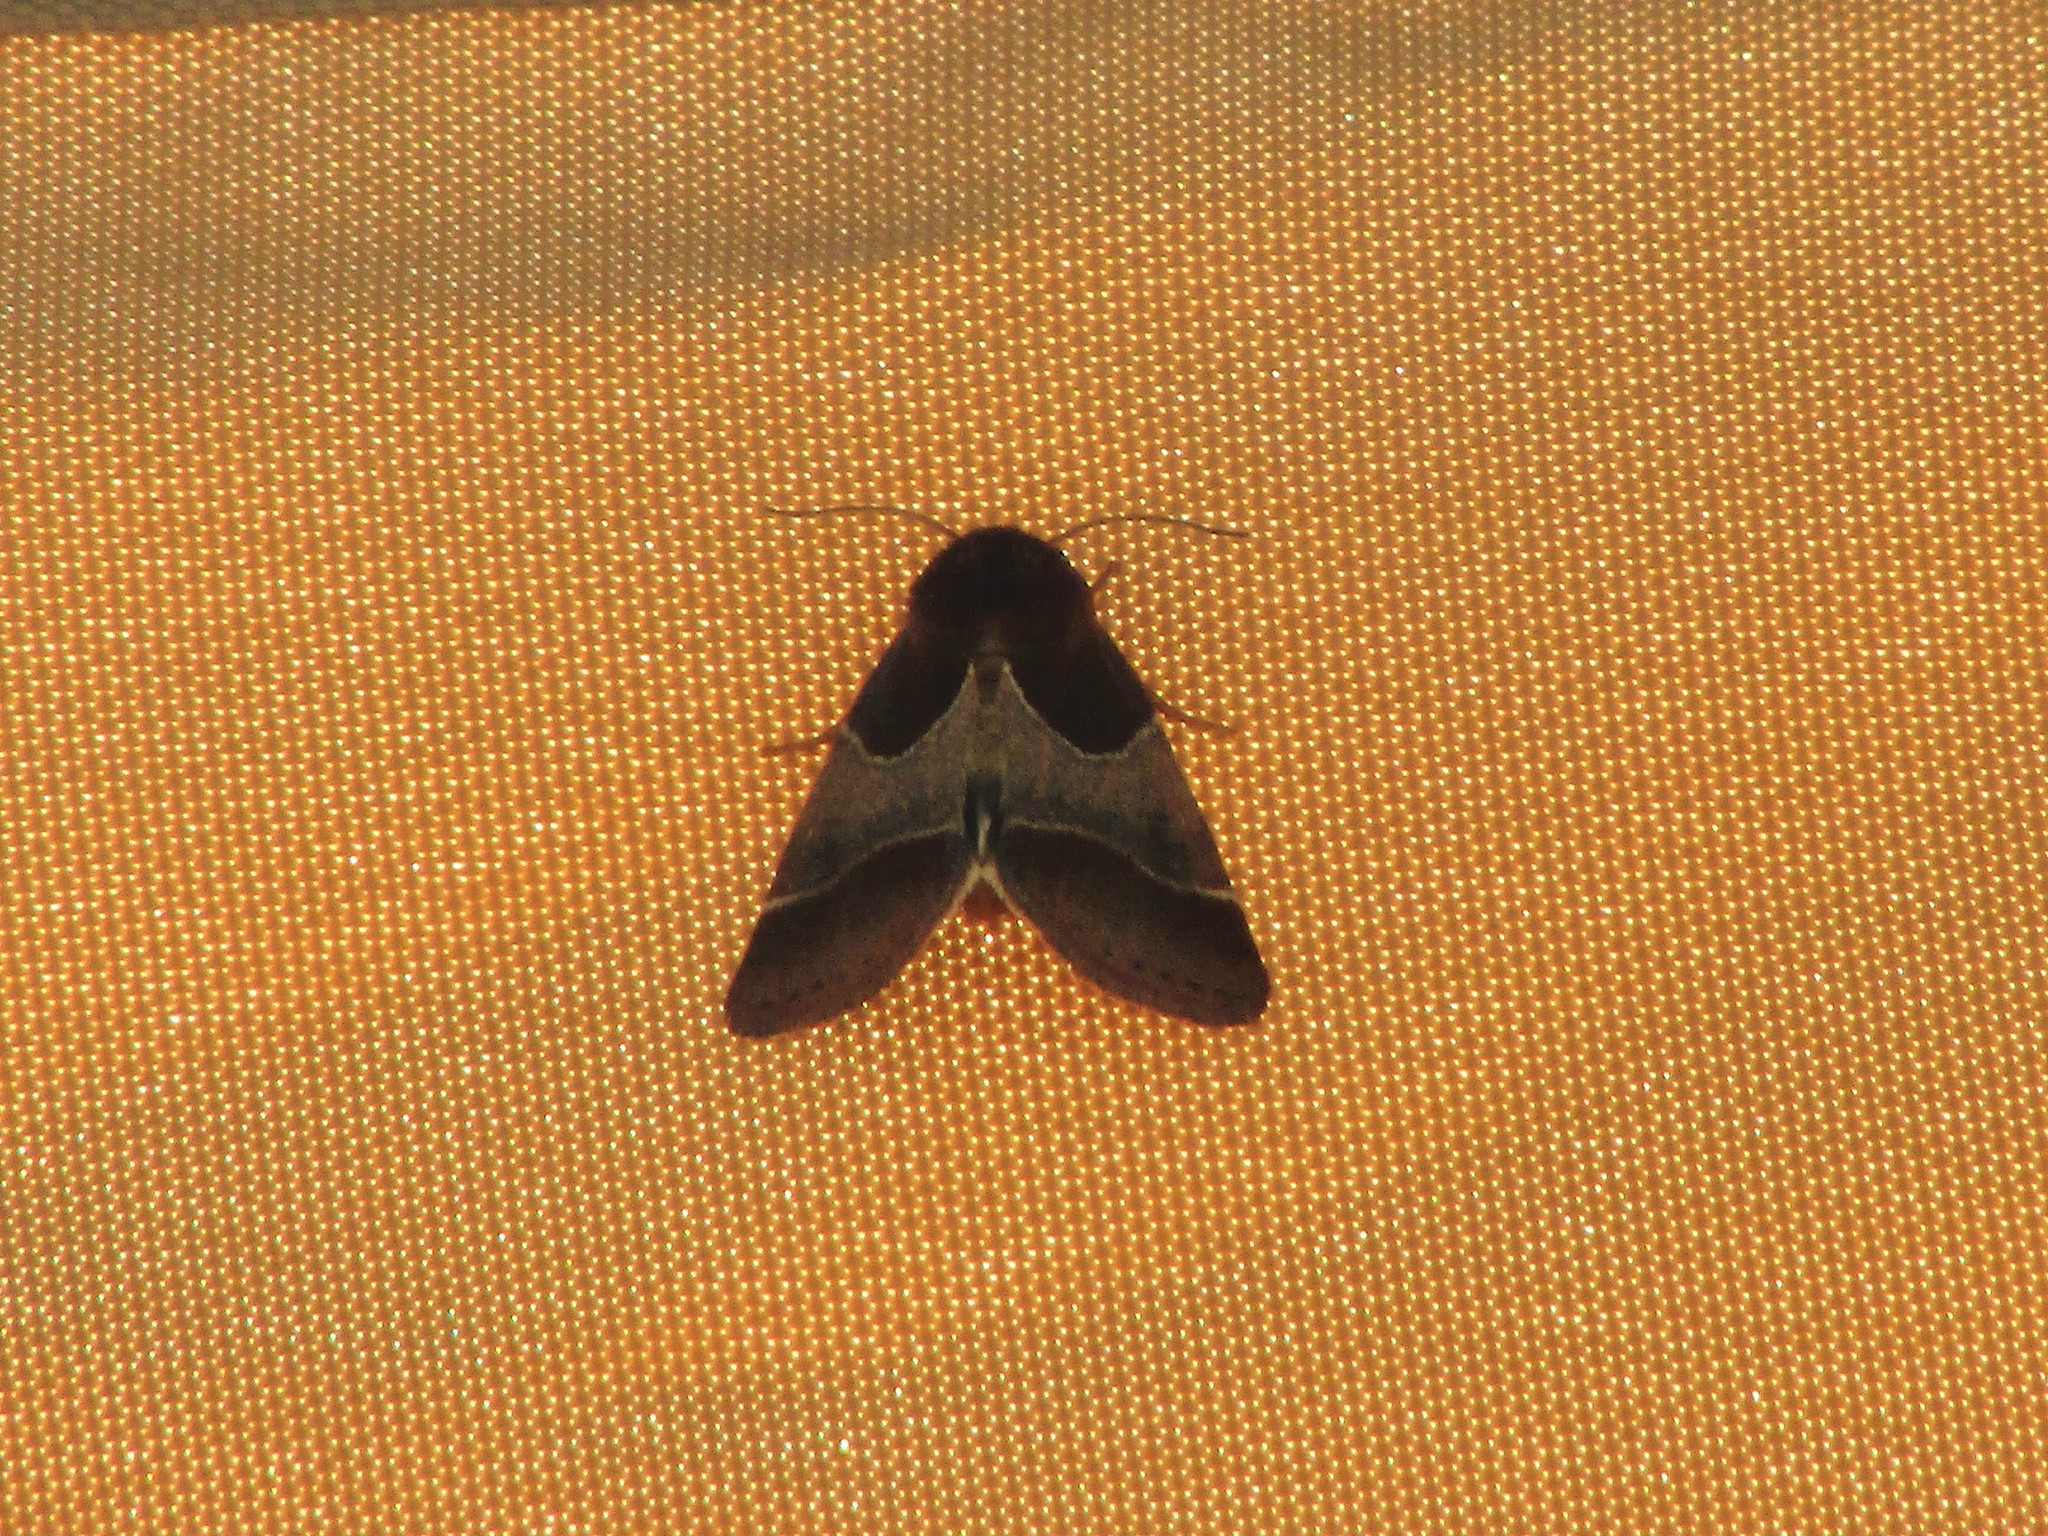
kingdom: Animalia
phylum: Arthropoda
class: Insecta
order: Lepidoptera
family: Noctuidae
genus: Schinia
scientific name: Schinia arcigera
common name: Arcigera flower moth
